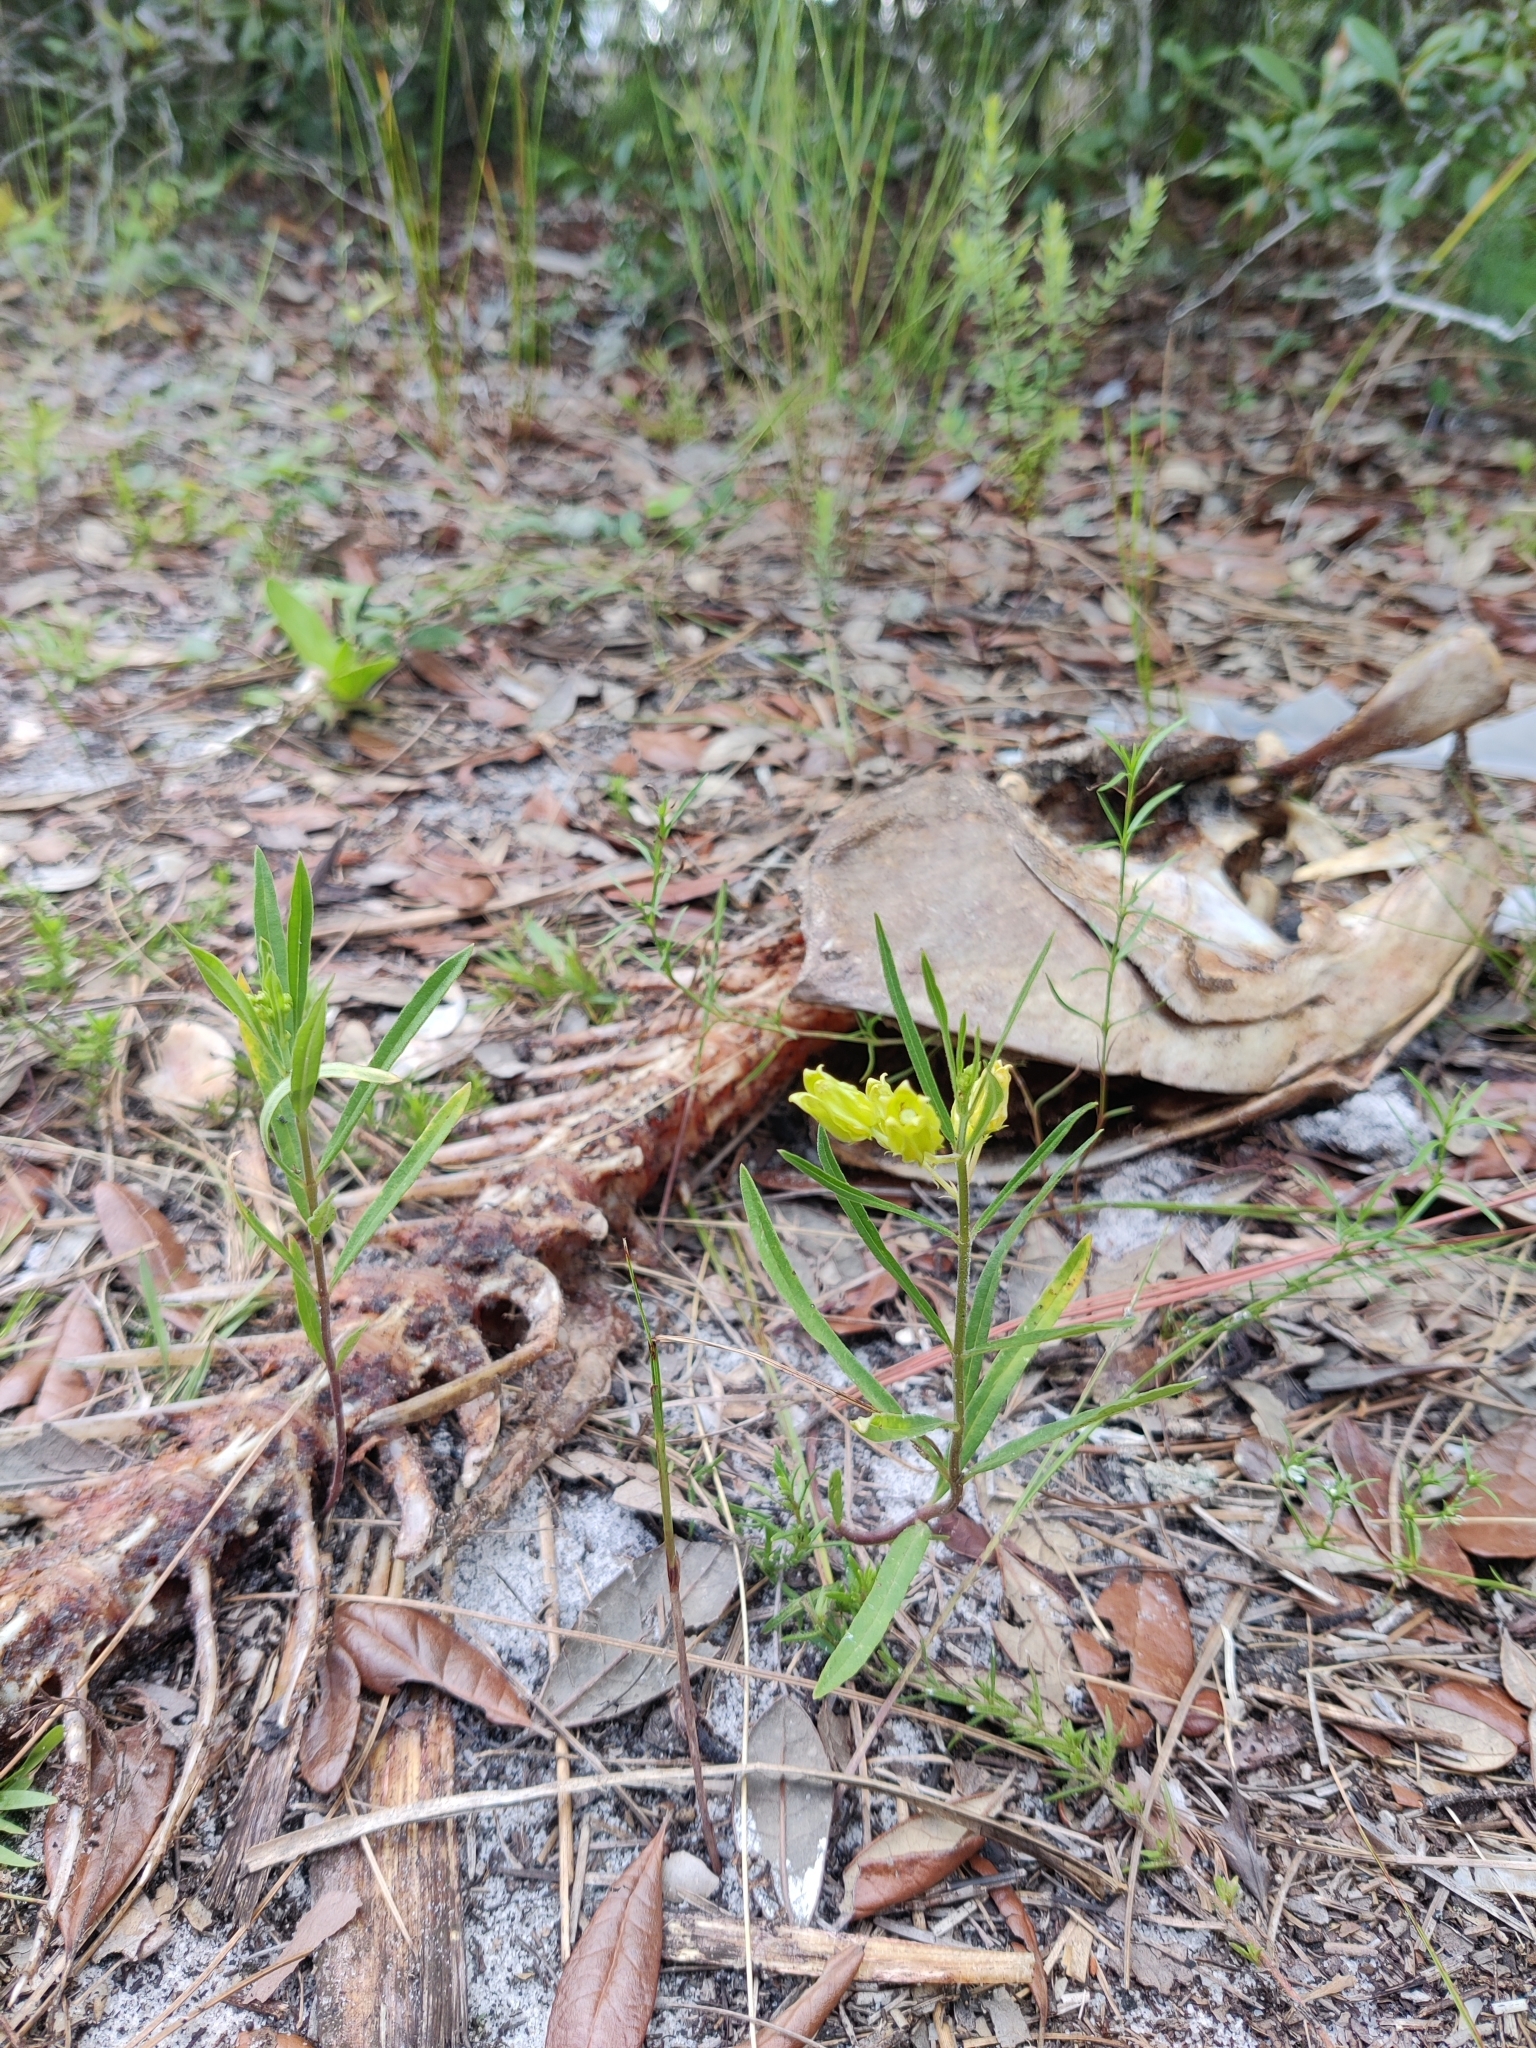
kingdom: Plantae
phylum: Tracheophyta
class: Magnoliopsida
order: Gentianales
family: Apocynaceae
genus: Asclepias
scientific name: Asclepias pedicellata
